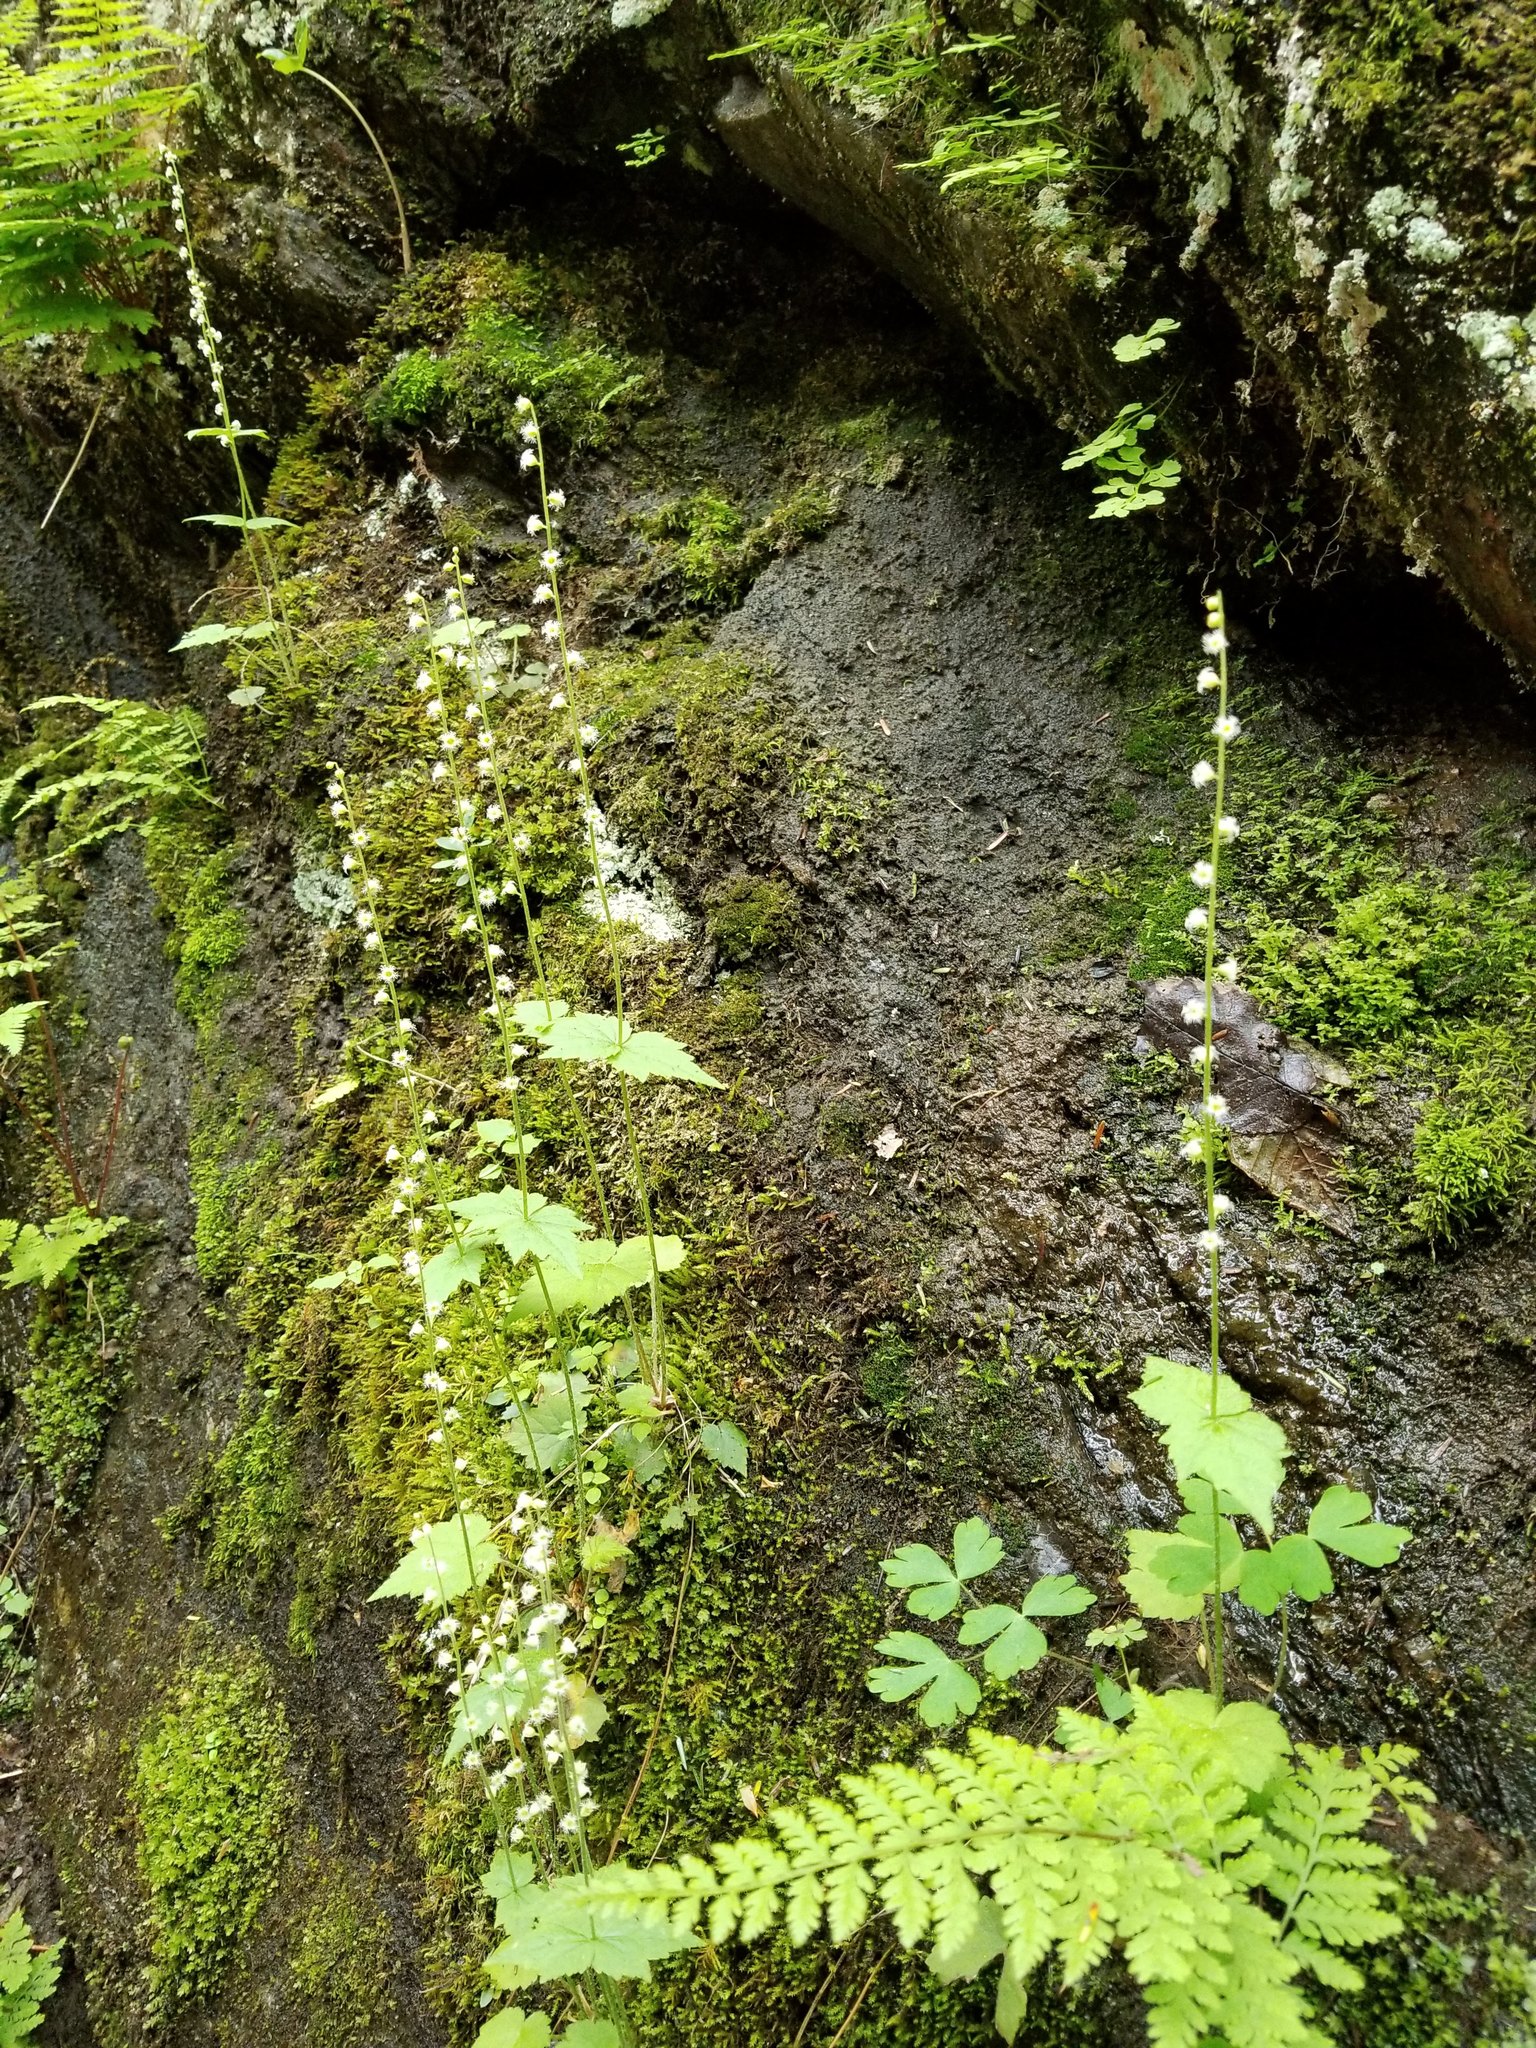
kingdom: Plantae
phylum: Tracheophyta
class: Magnoliopsida
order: Saxifragales
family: Saxifragaceae
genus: Mitella
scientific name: Mitella diphylla
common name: Coolwort
